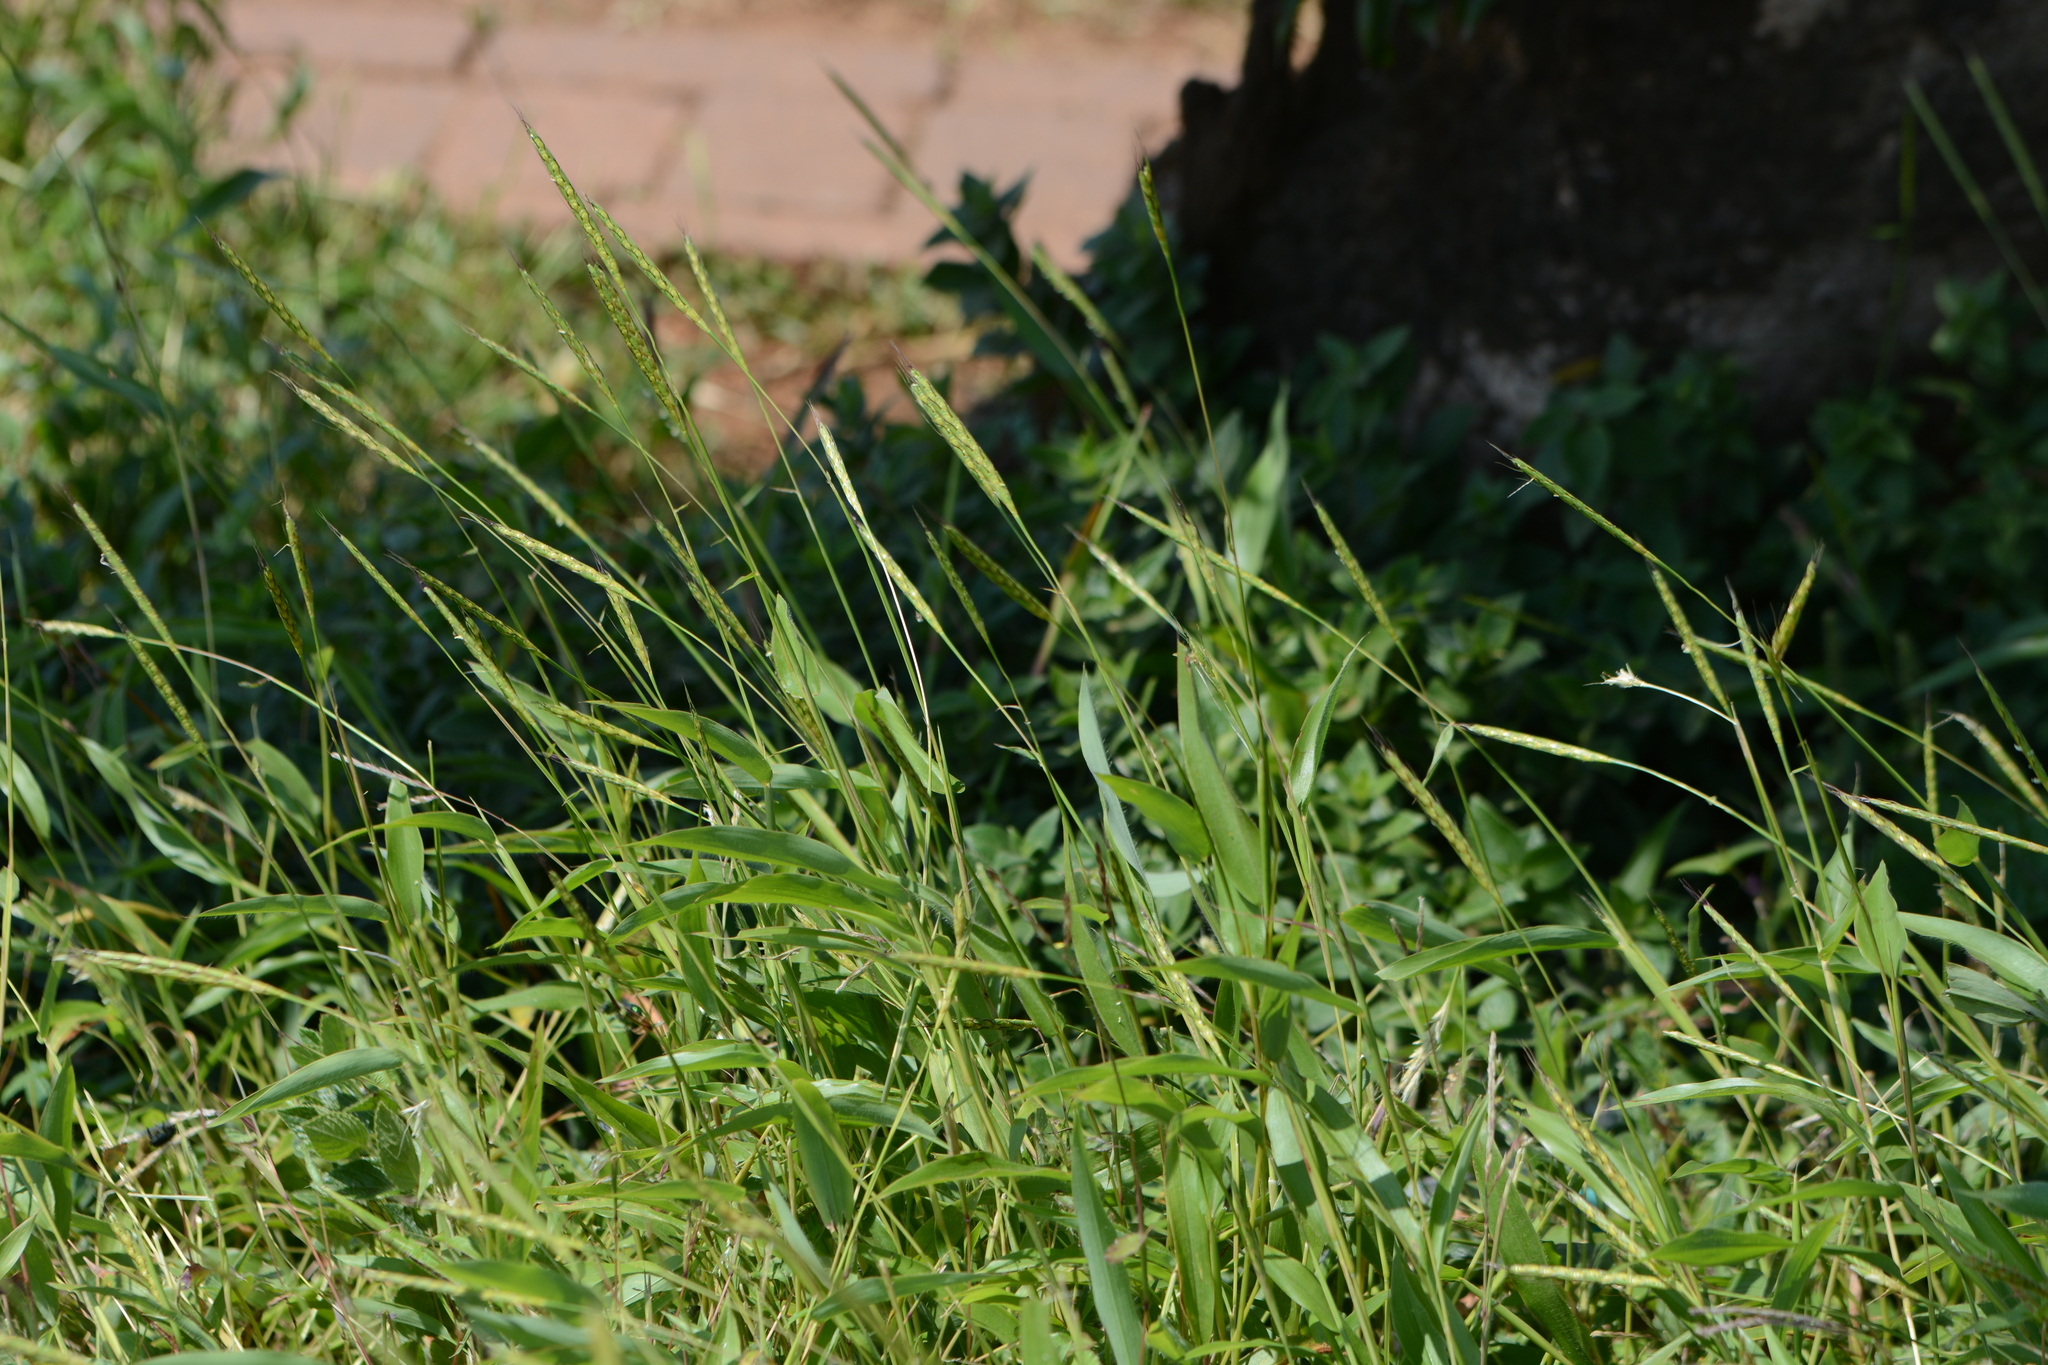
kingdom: Plantae
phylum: Tracheophyta
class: Liliopsida
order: Poales
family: Poaceae
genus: Ischaemum
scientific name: Ischaemum impressum
